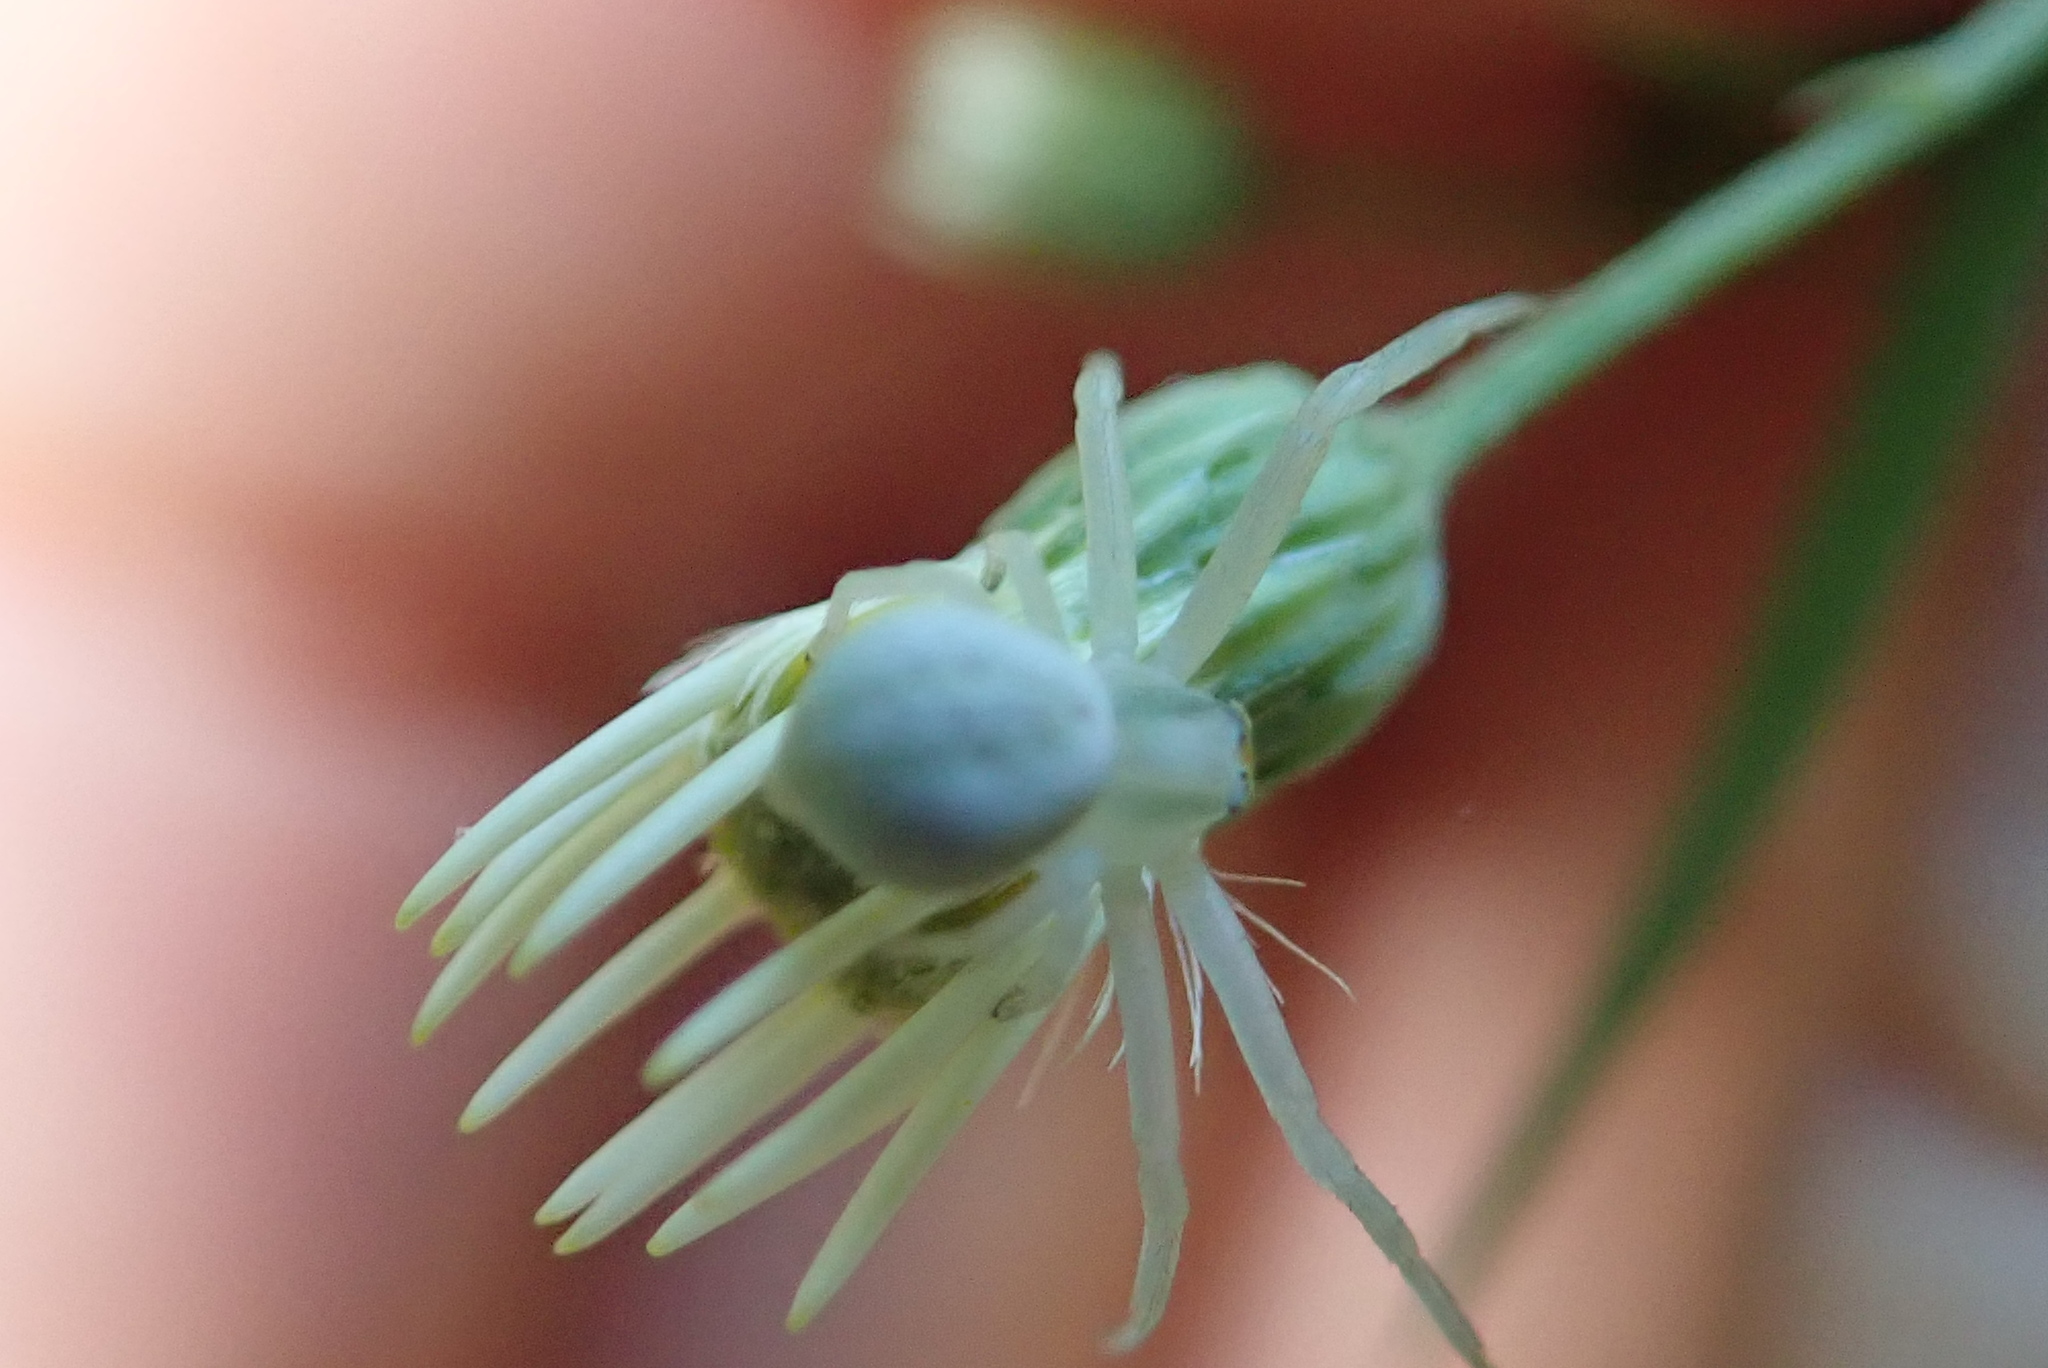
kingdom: Animalia
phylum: Arthropoda
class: Arachnida
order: Araneae
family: Thomisidae
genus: Misumena
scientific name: Misumena vatia
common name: Goldenrod crab spider
